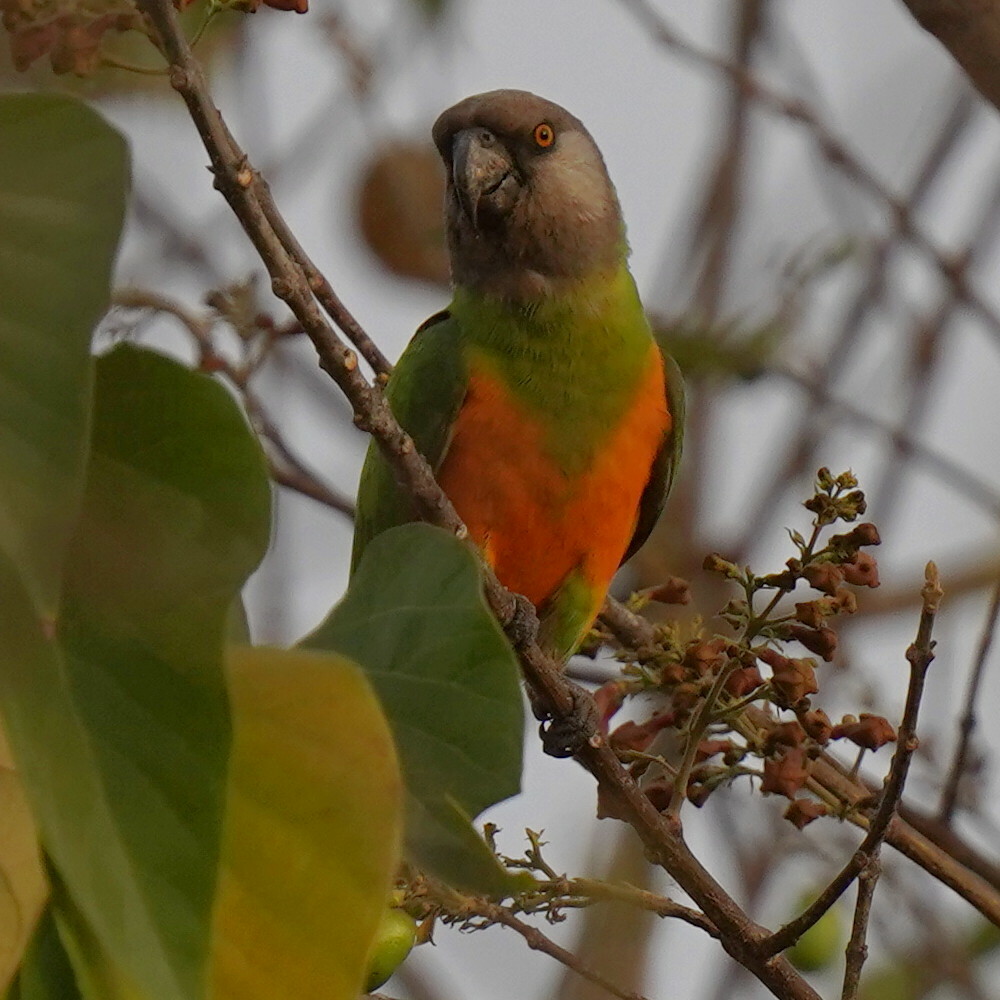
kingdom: Animalia
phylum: Chordata
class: Aves
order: Psittaciformes
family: Psittacidae
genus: Poicephalus
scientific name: Poicephalus senegalus
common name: Senegal parrot
